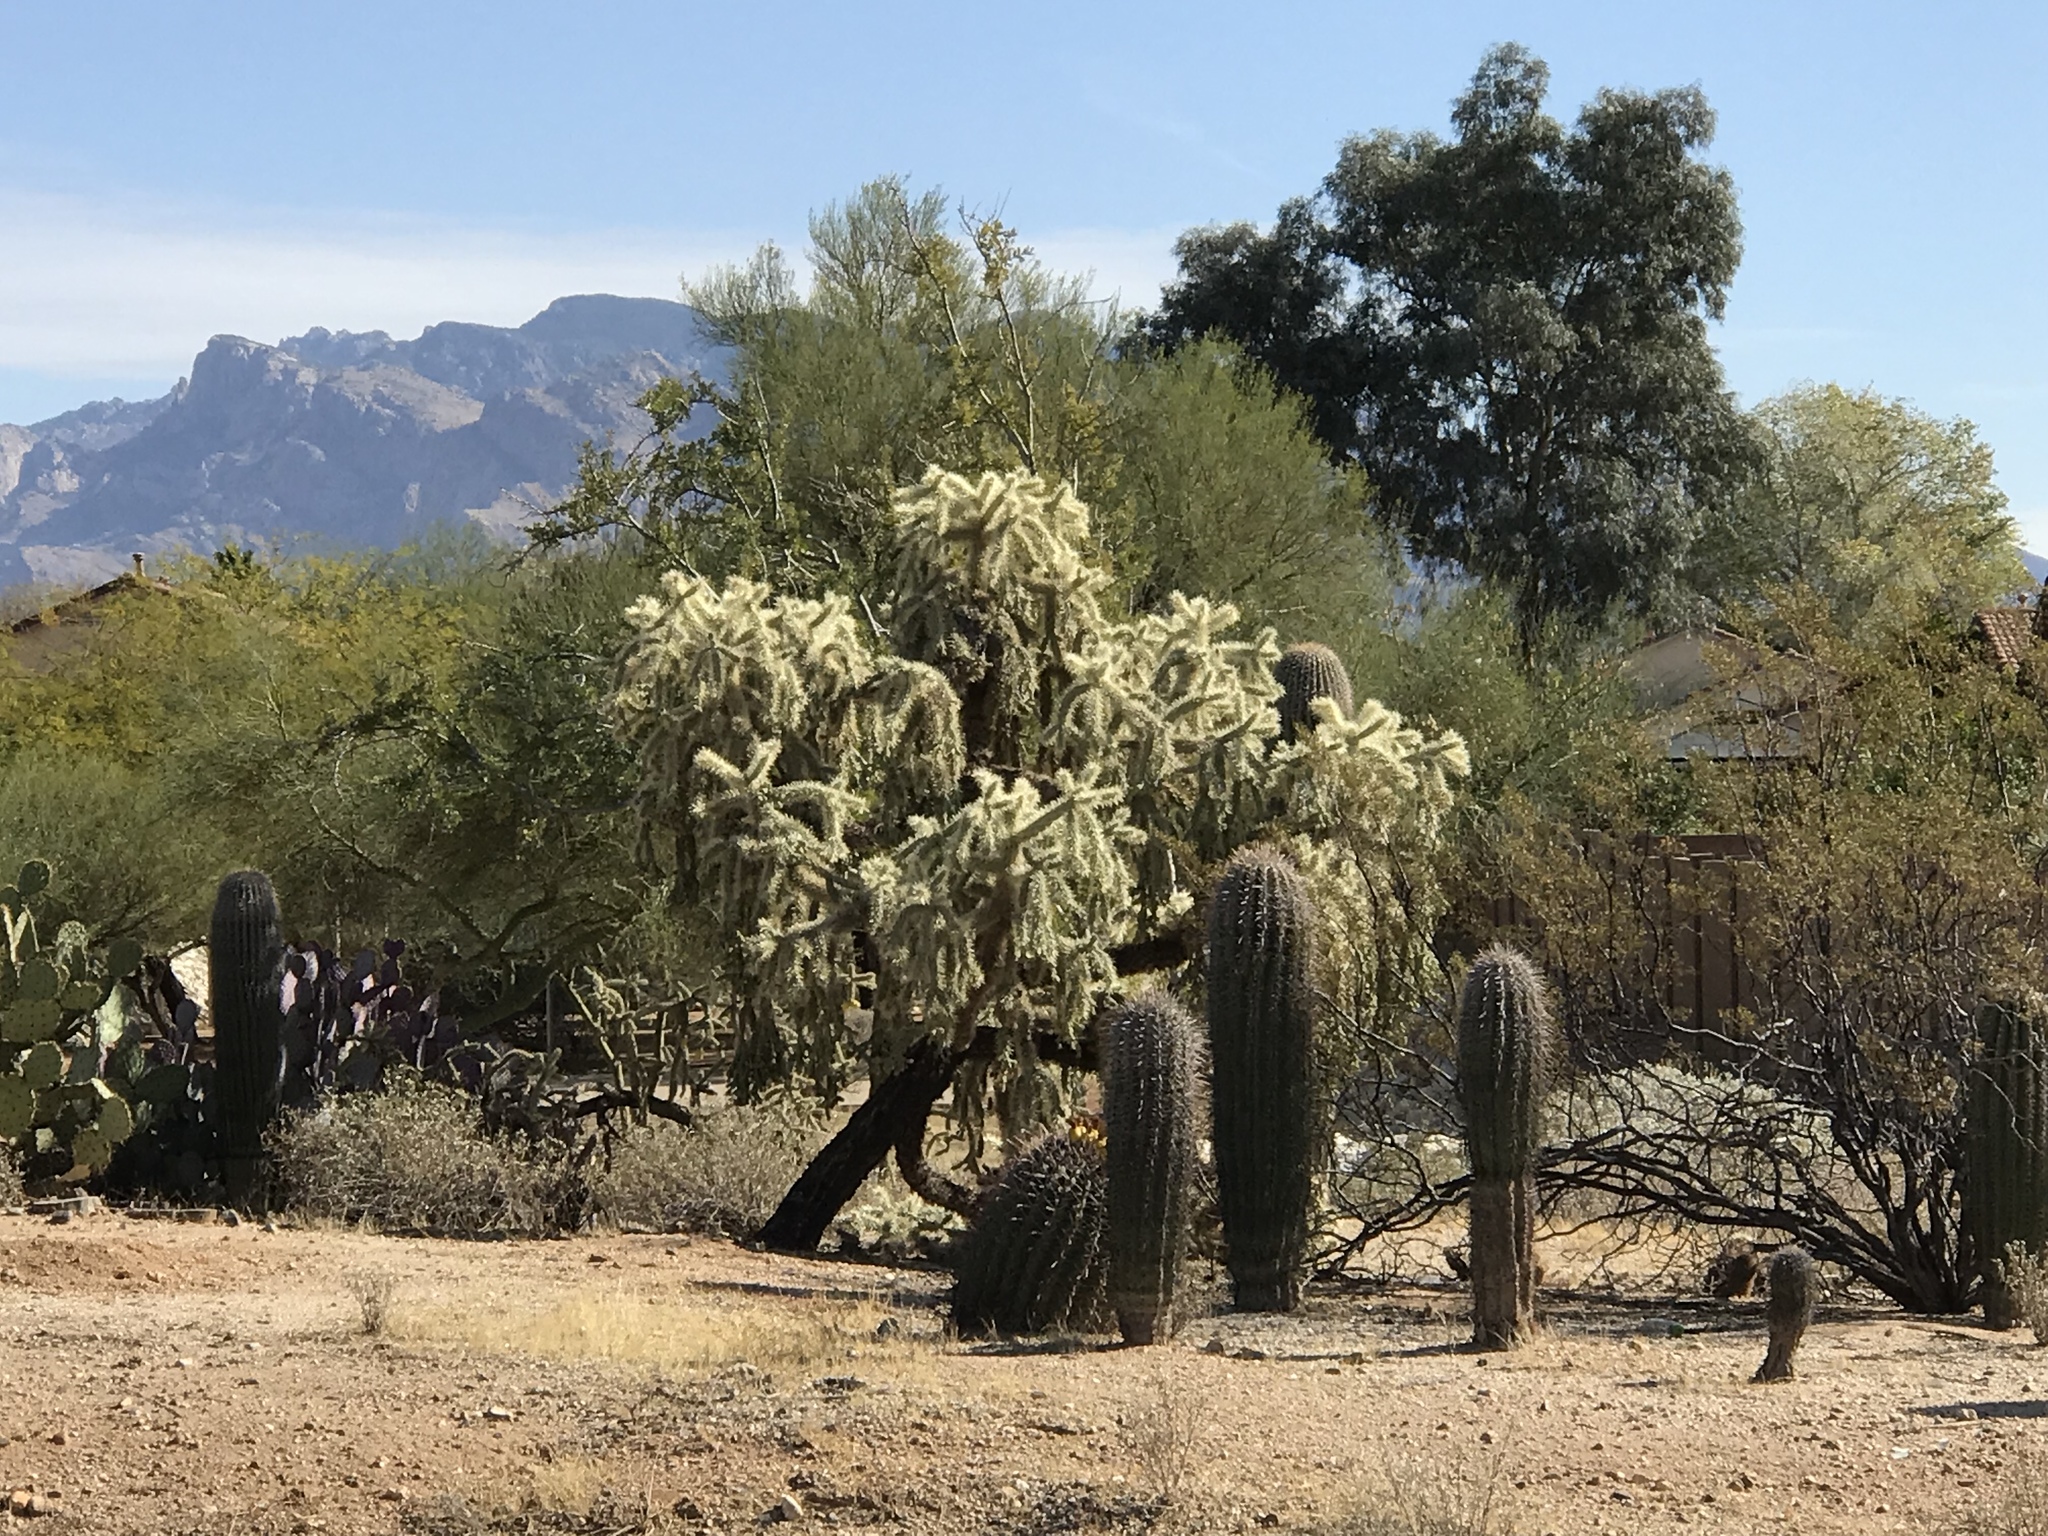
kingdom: Plantae
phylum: Tracheophyta
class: Magnoliopsida
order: Caryophyllales
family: Cactaceae
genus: Cylindropuntia
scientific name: Cylindropuntia fulgida
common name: Jumping cholla
